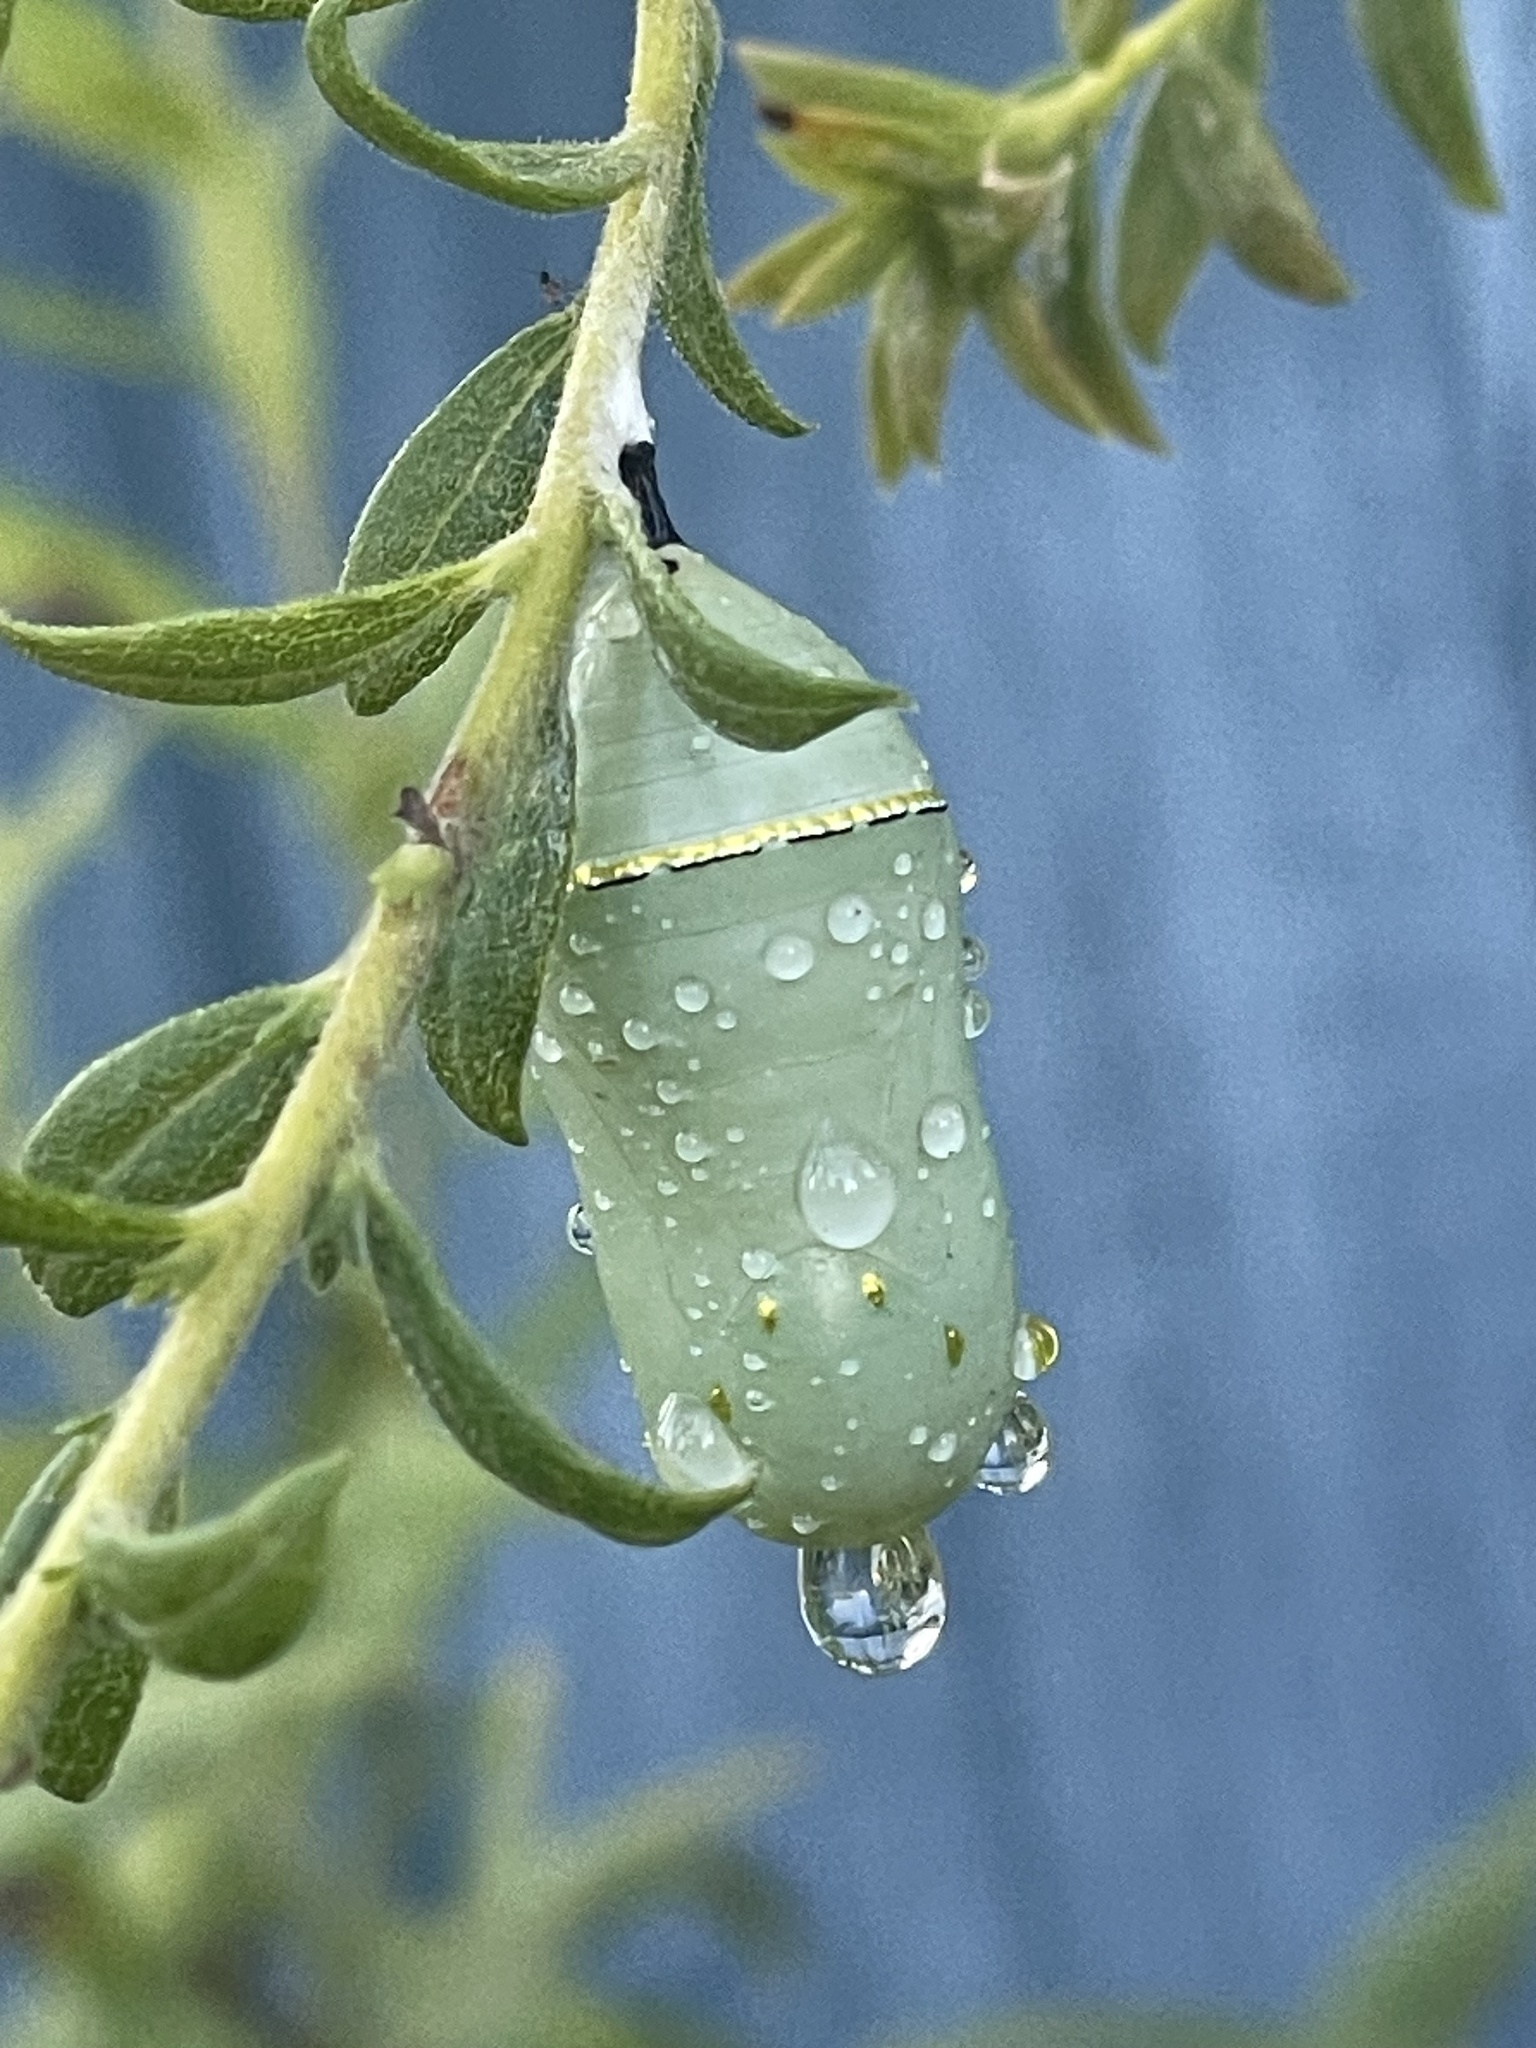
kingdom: Animalia
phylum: Arthropoda
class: Insecta
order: Lepidoptera
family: Nymphalidae
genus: Danaus
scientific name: Danaus plexippus
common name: Monarch
